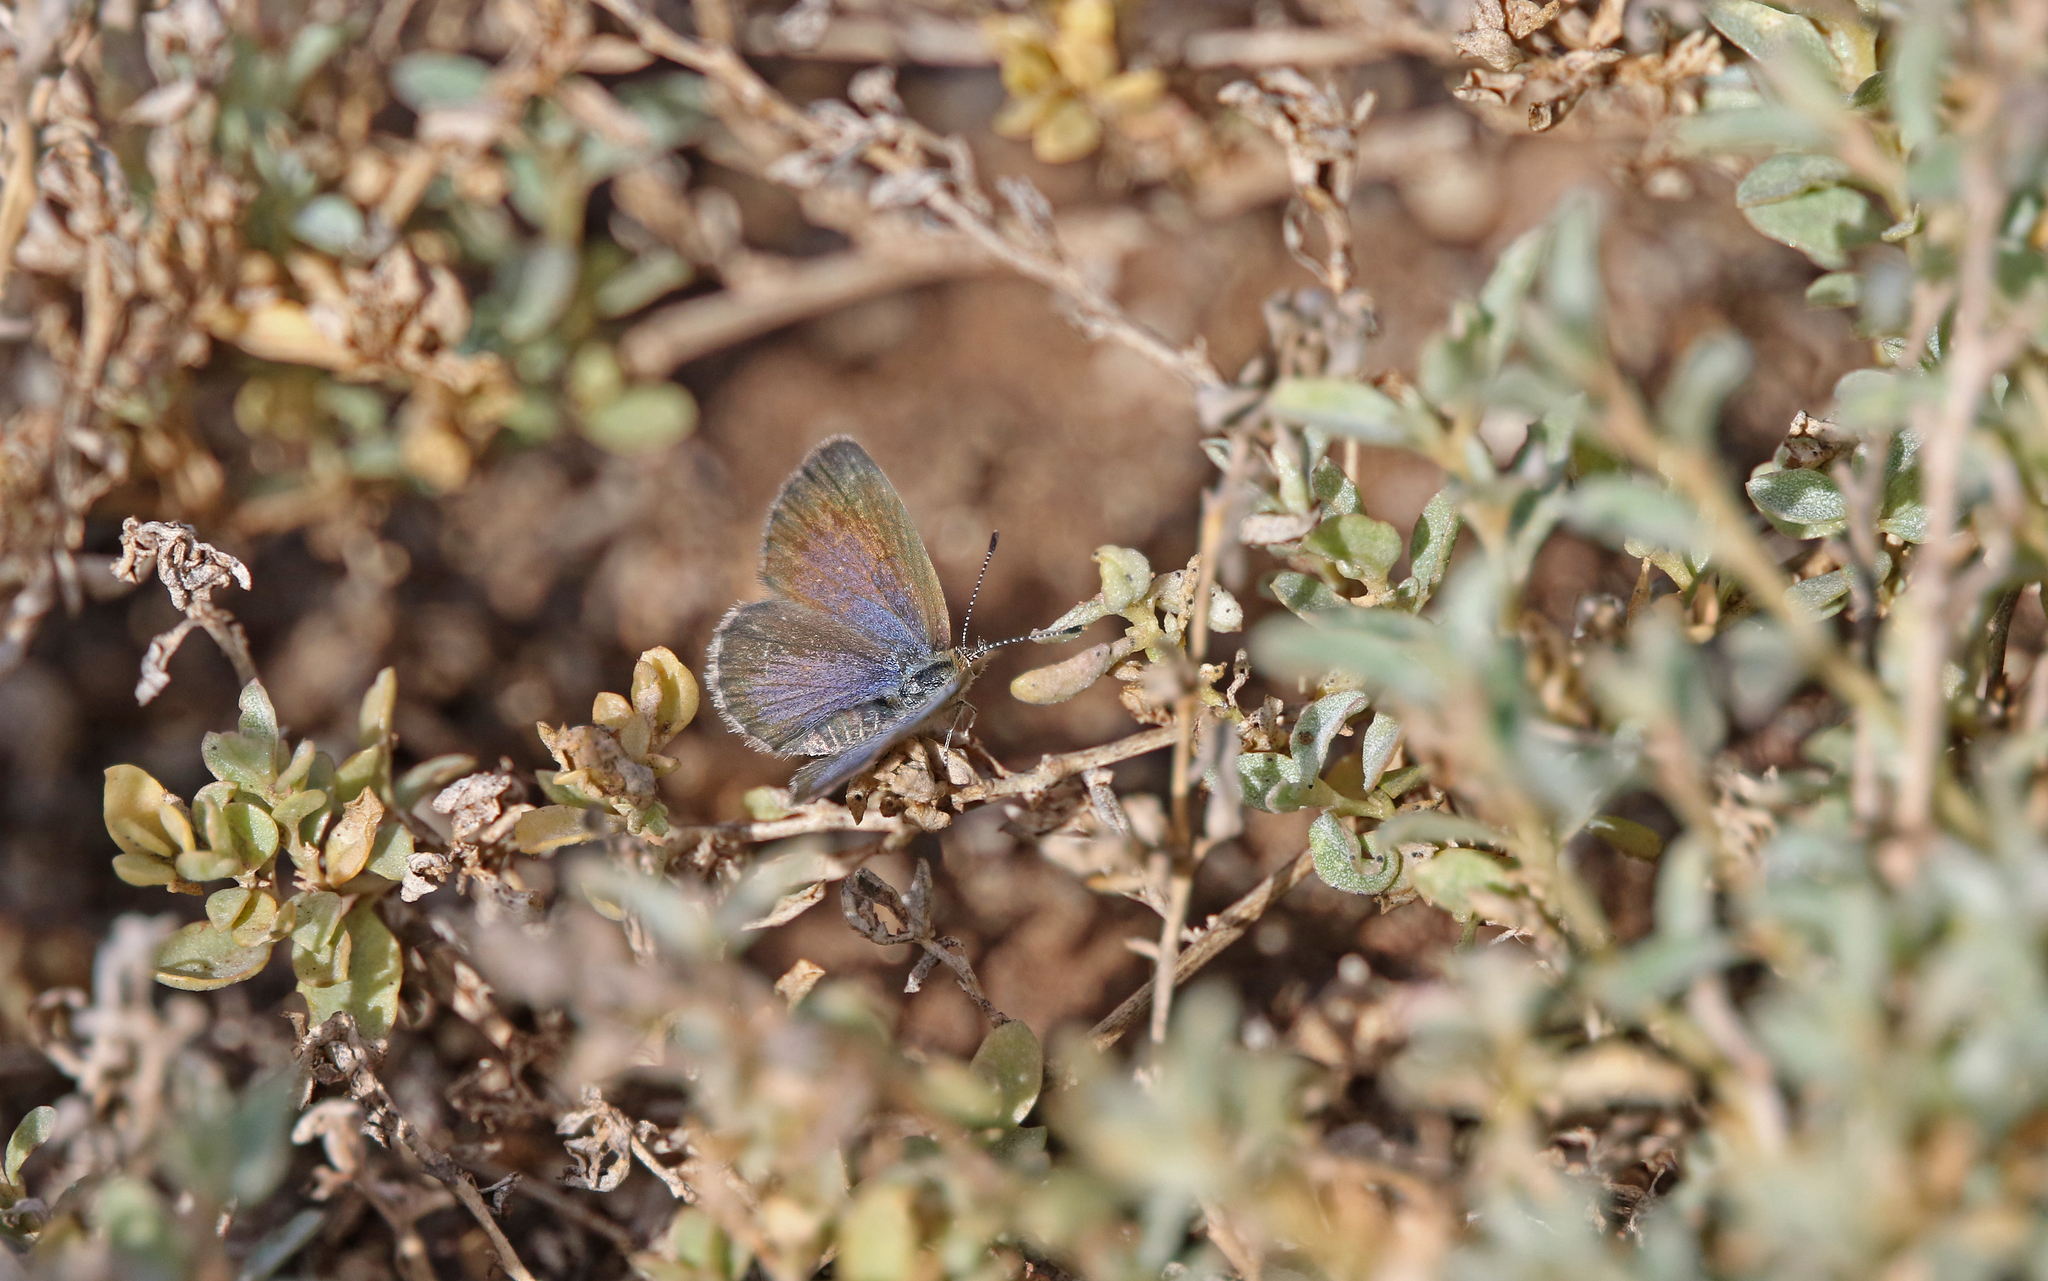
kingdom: Animalia
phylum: Arthropoda
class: Insecta
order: Lepidoptera
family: Lycaenidae
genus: Zizeeria
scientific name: Zizeeria knysna
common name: African grass blue
